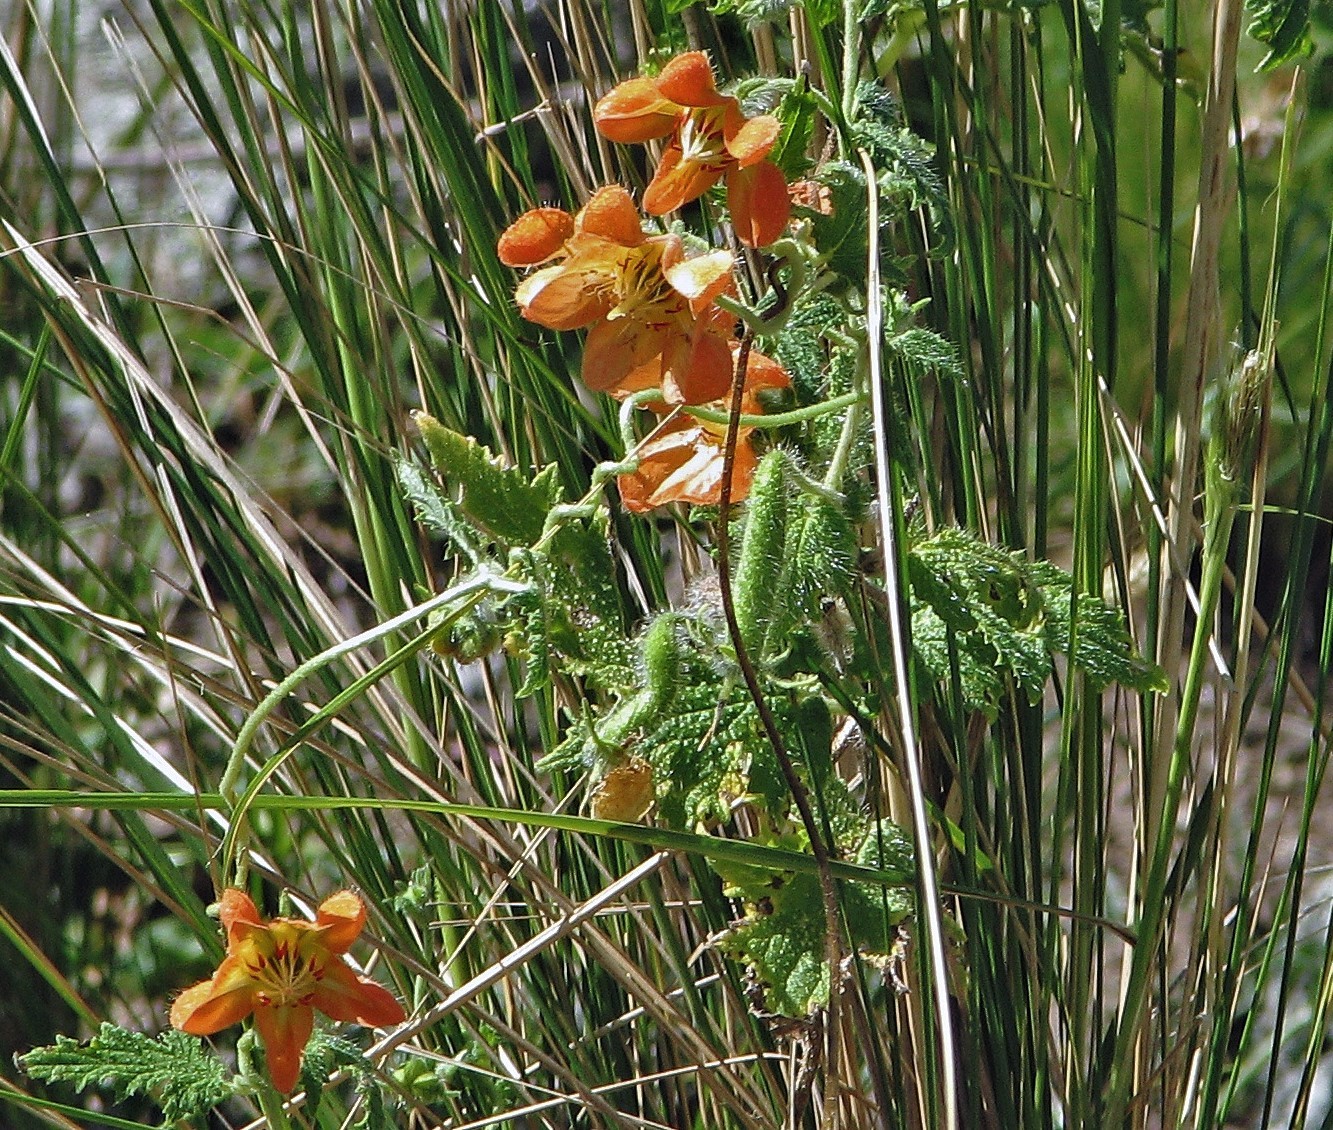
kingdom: Plantae
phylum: Tracheophyta
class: Magnoliopsida
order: Cornales
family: Loasaceae
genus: Caiophora
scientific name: Caiophora lateritia
